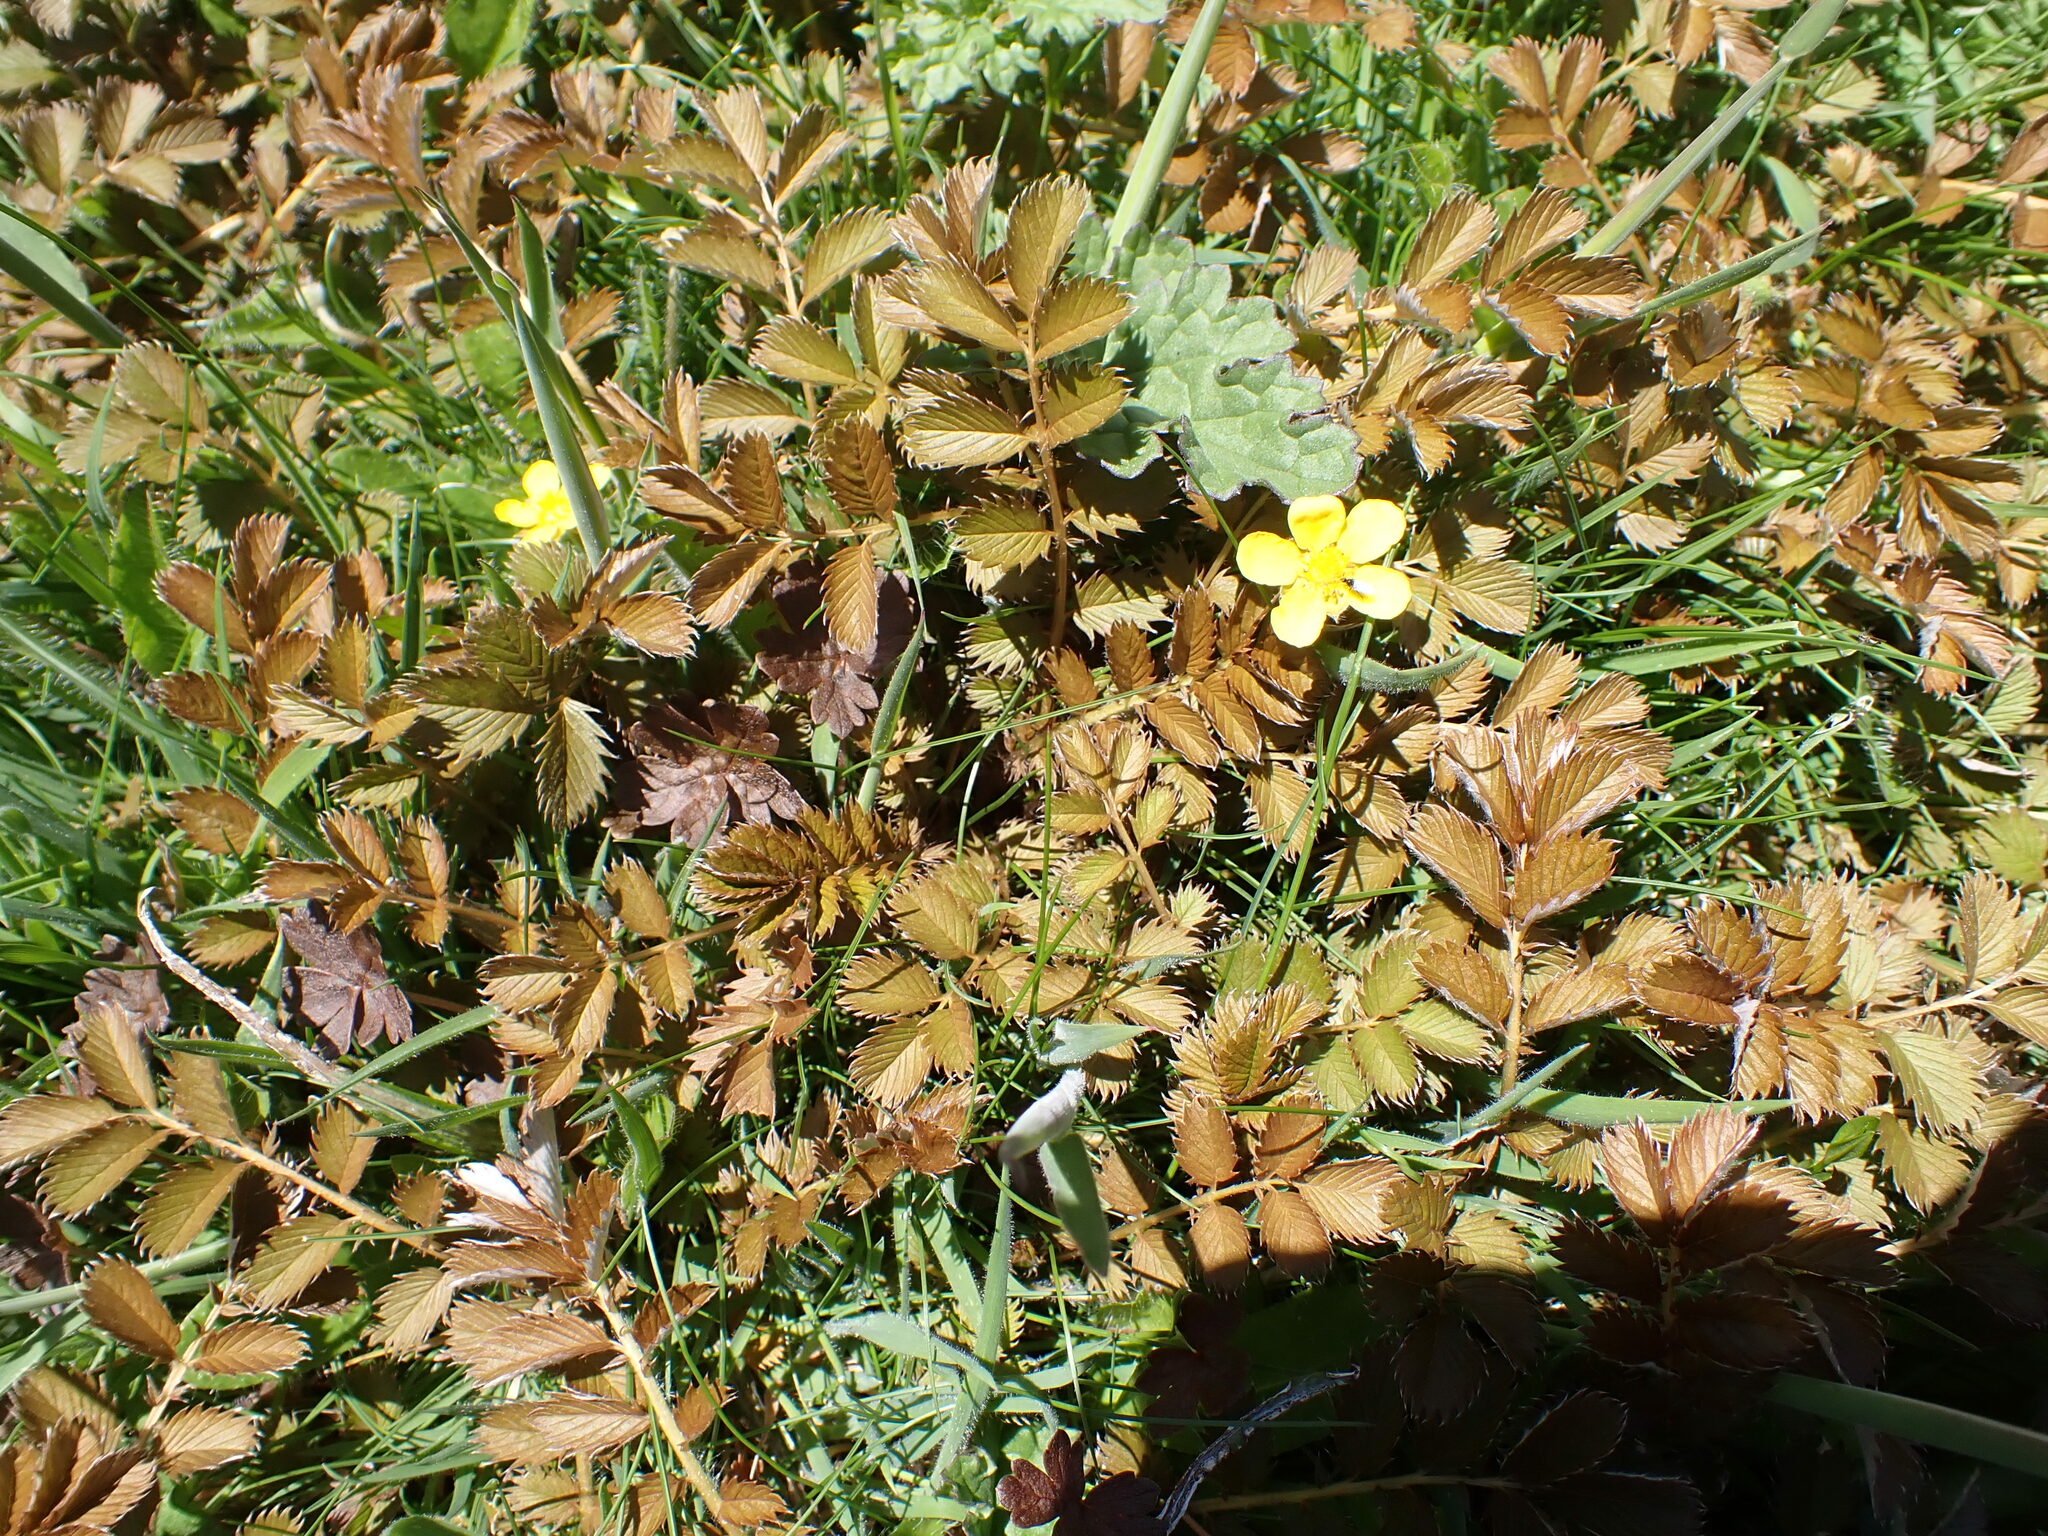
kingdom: Plantae
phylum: Tracheophyta
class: Magnoliopsida
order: Rosales
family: Rosaceae
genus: Argentina
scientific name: Argentina anserinoides
